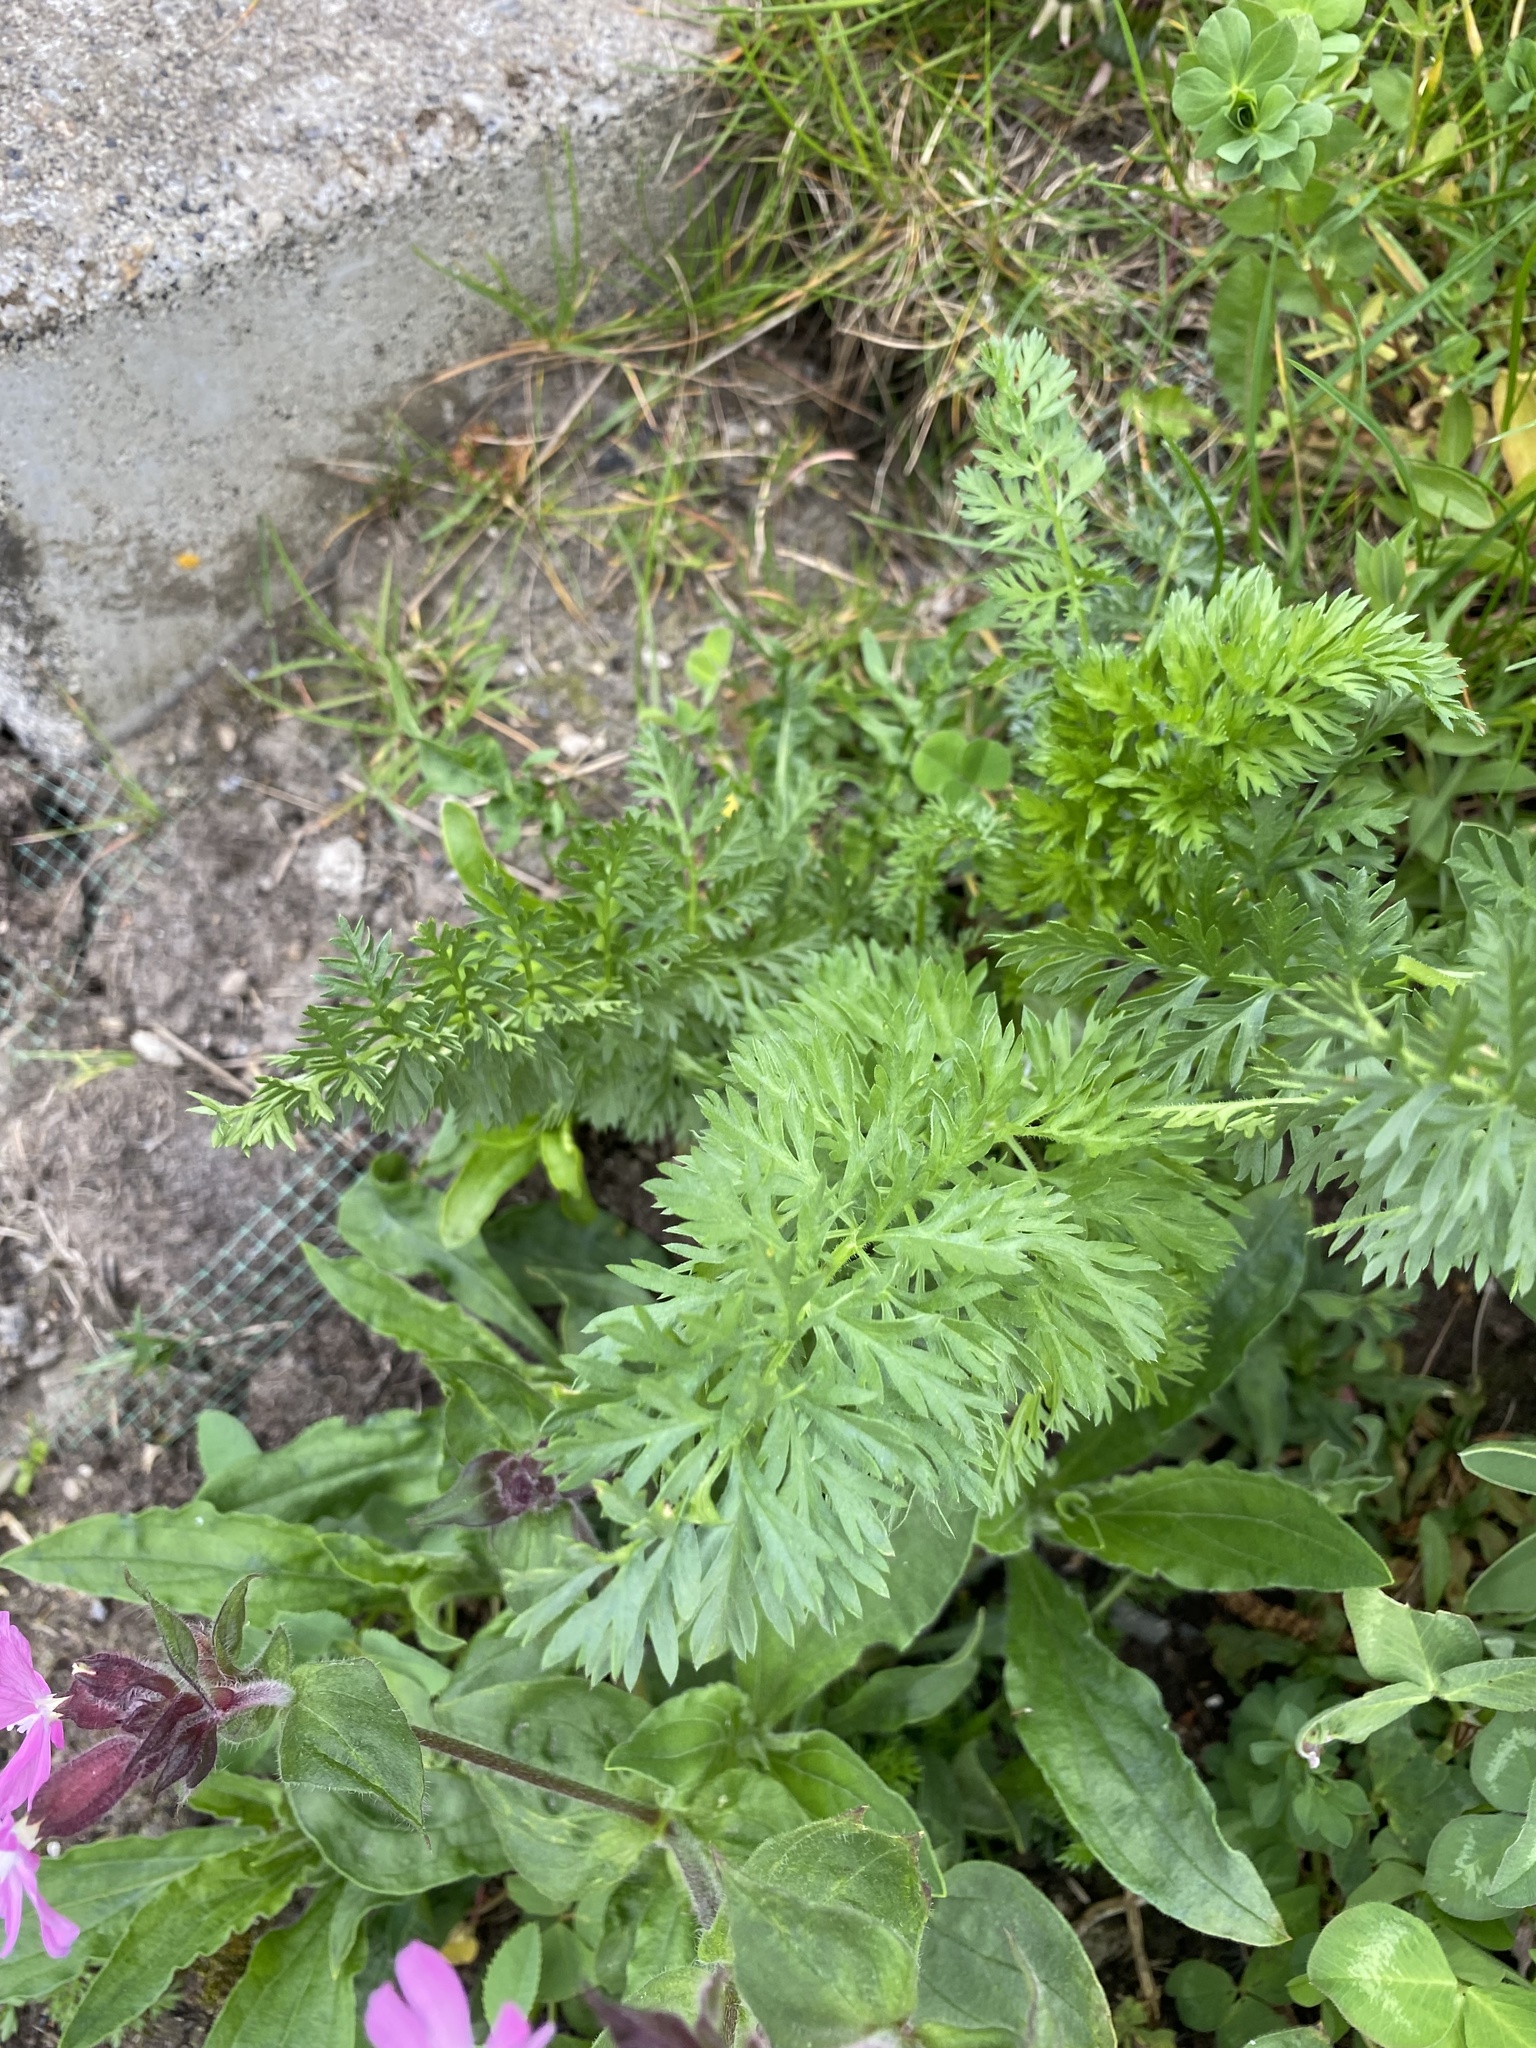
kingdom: Plantae
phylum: Tracheophyta
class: Magnoliopsida
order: Apiales
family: Apiaceae
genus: Daucus
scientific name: Daucus carota
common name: Wild carrot
